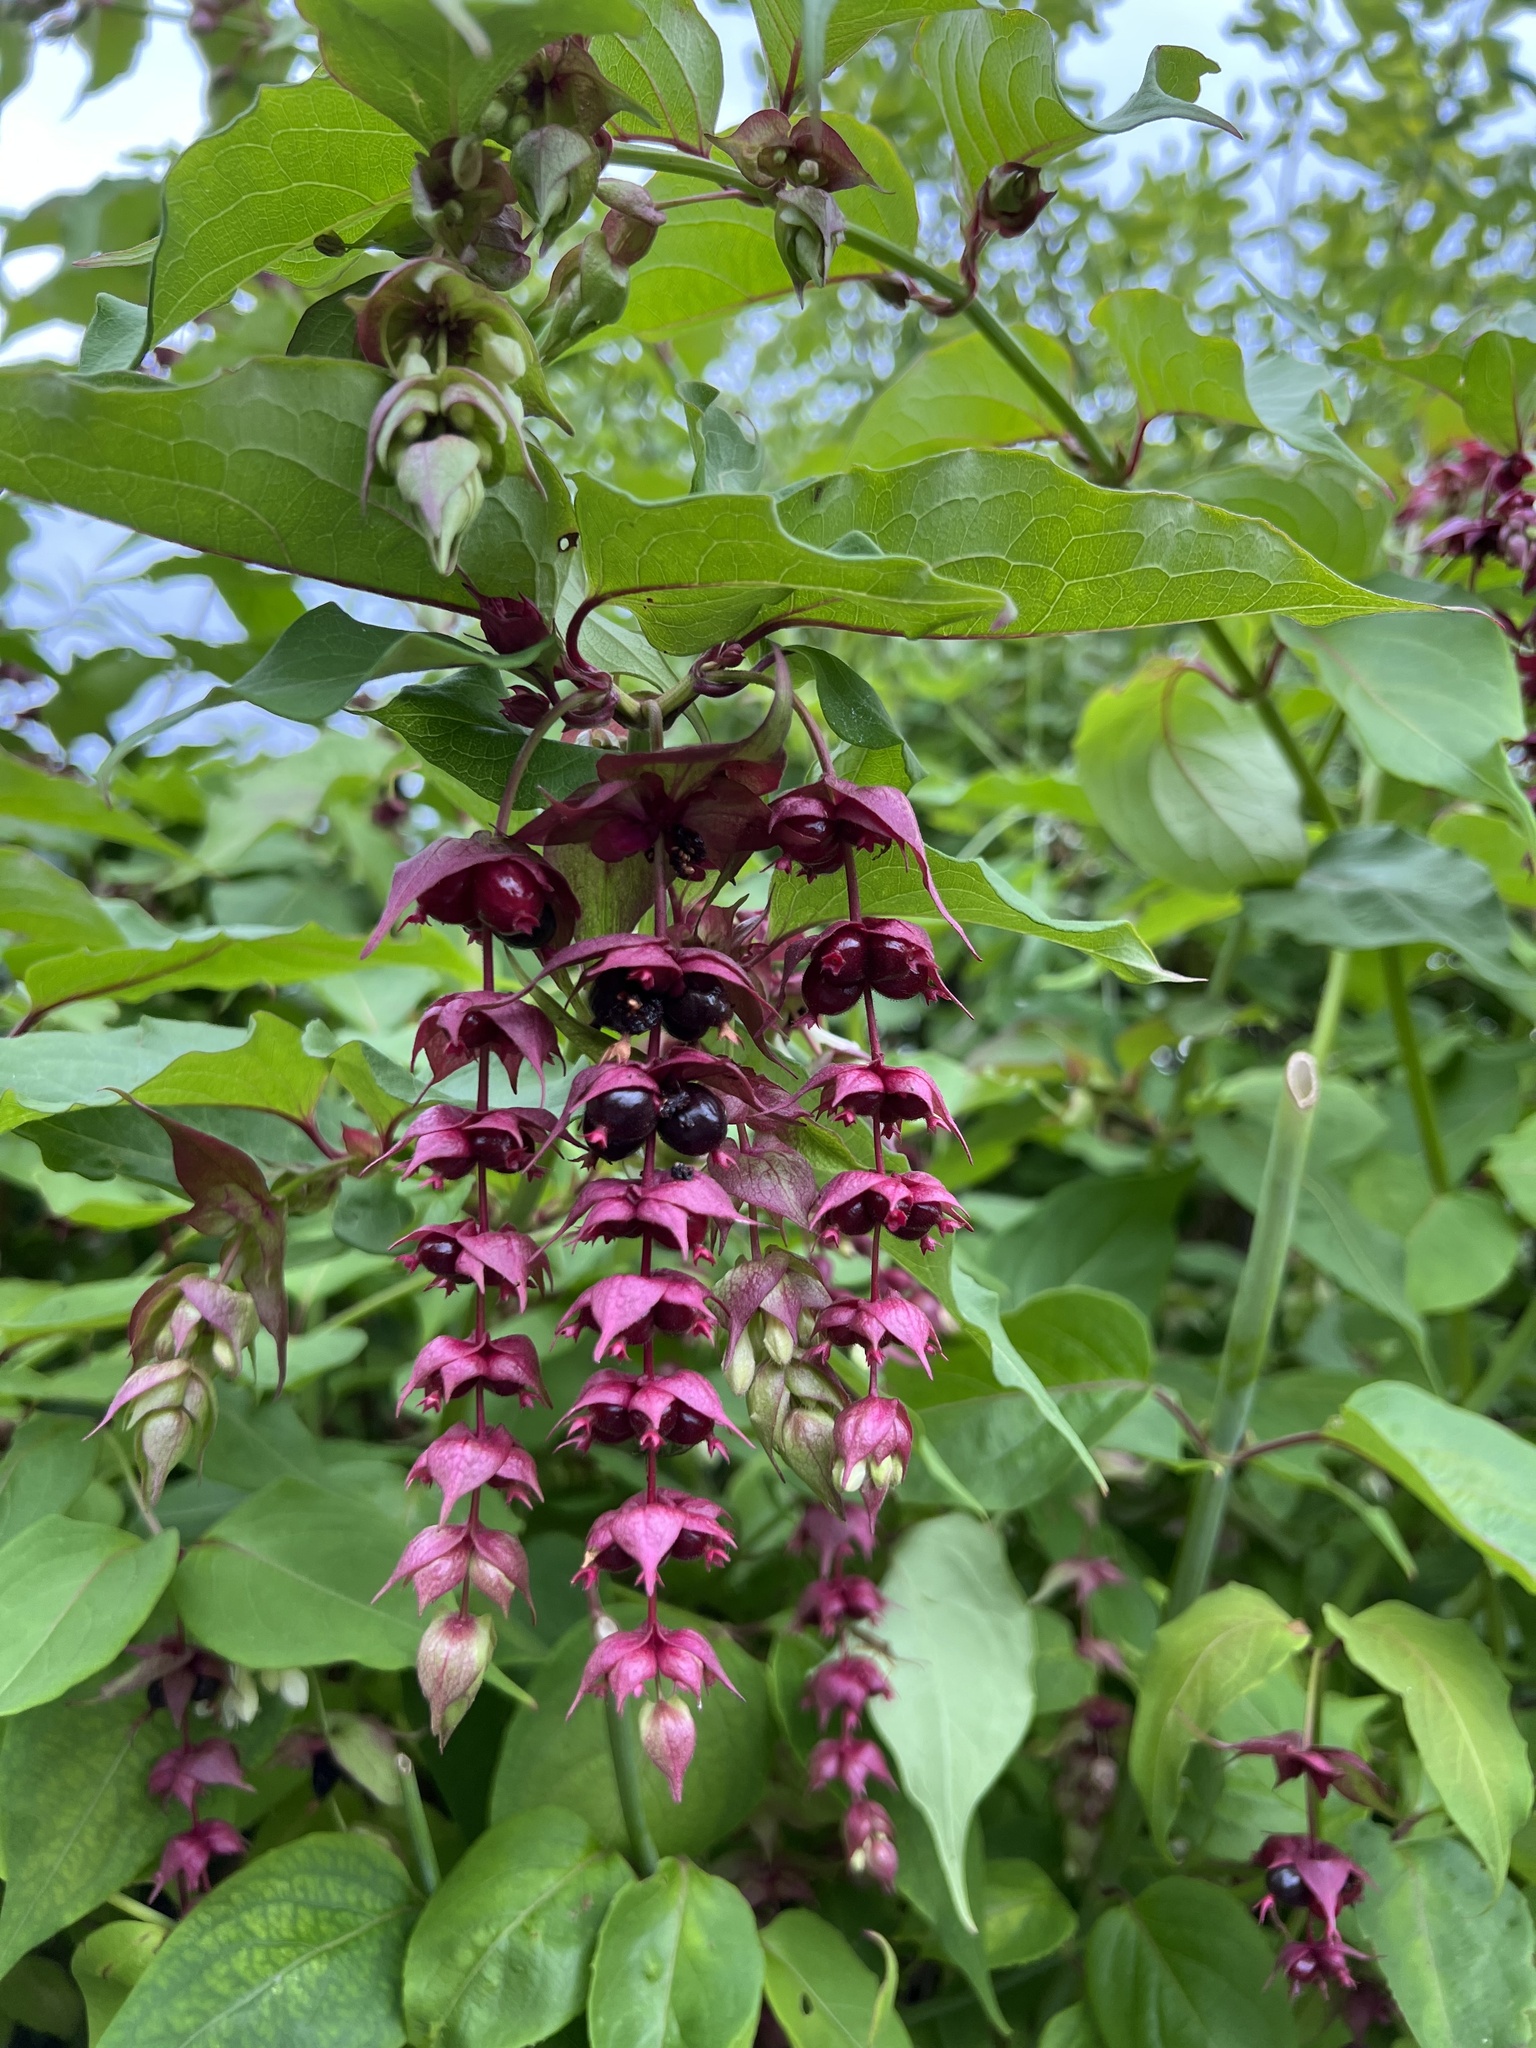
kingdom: Plantae
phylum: Tracheophyta
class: Magnoliopsida
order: Dipsacales
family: Caprifoliaceae
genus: Leycesteria
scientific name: Leycesteria formosa
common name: Himalayan honeysuckle
